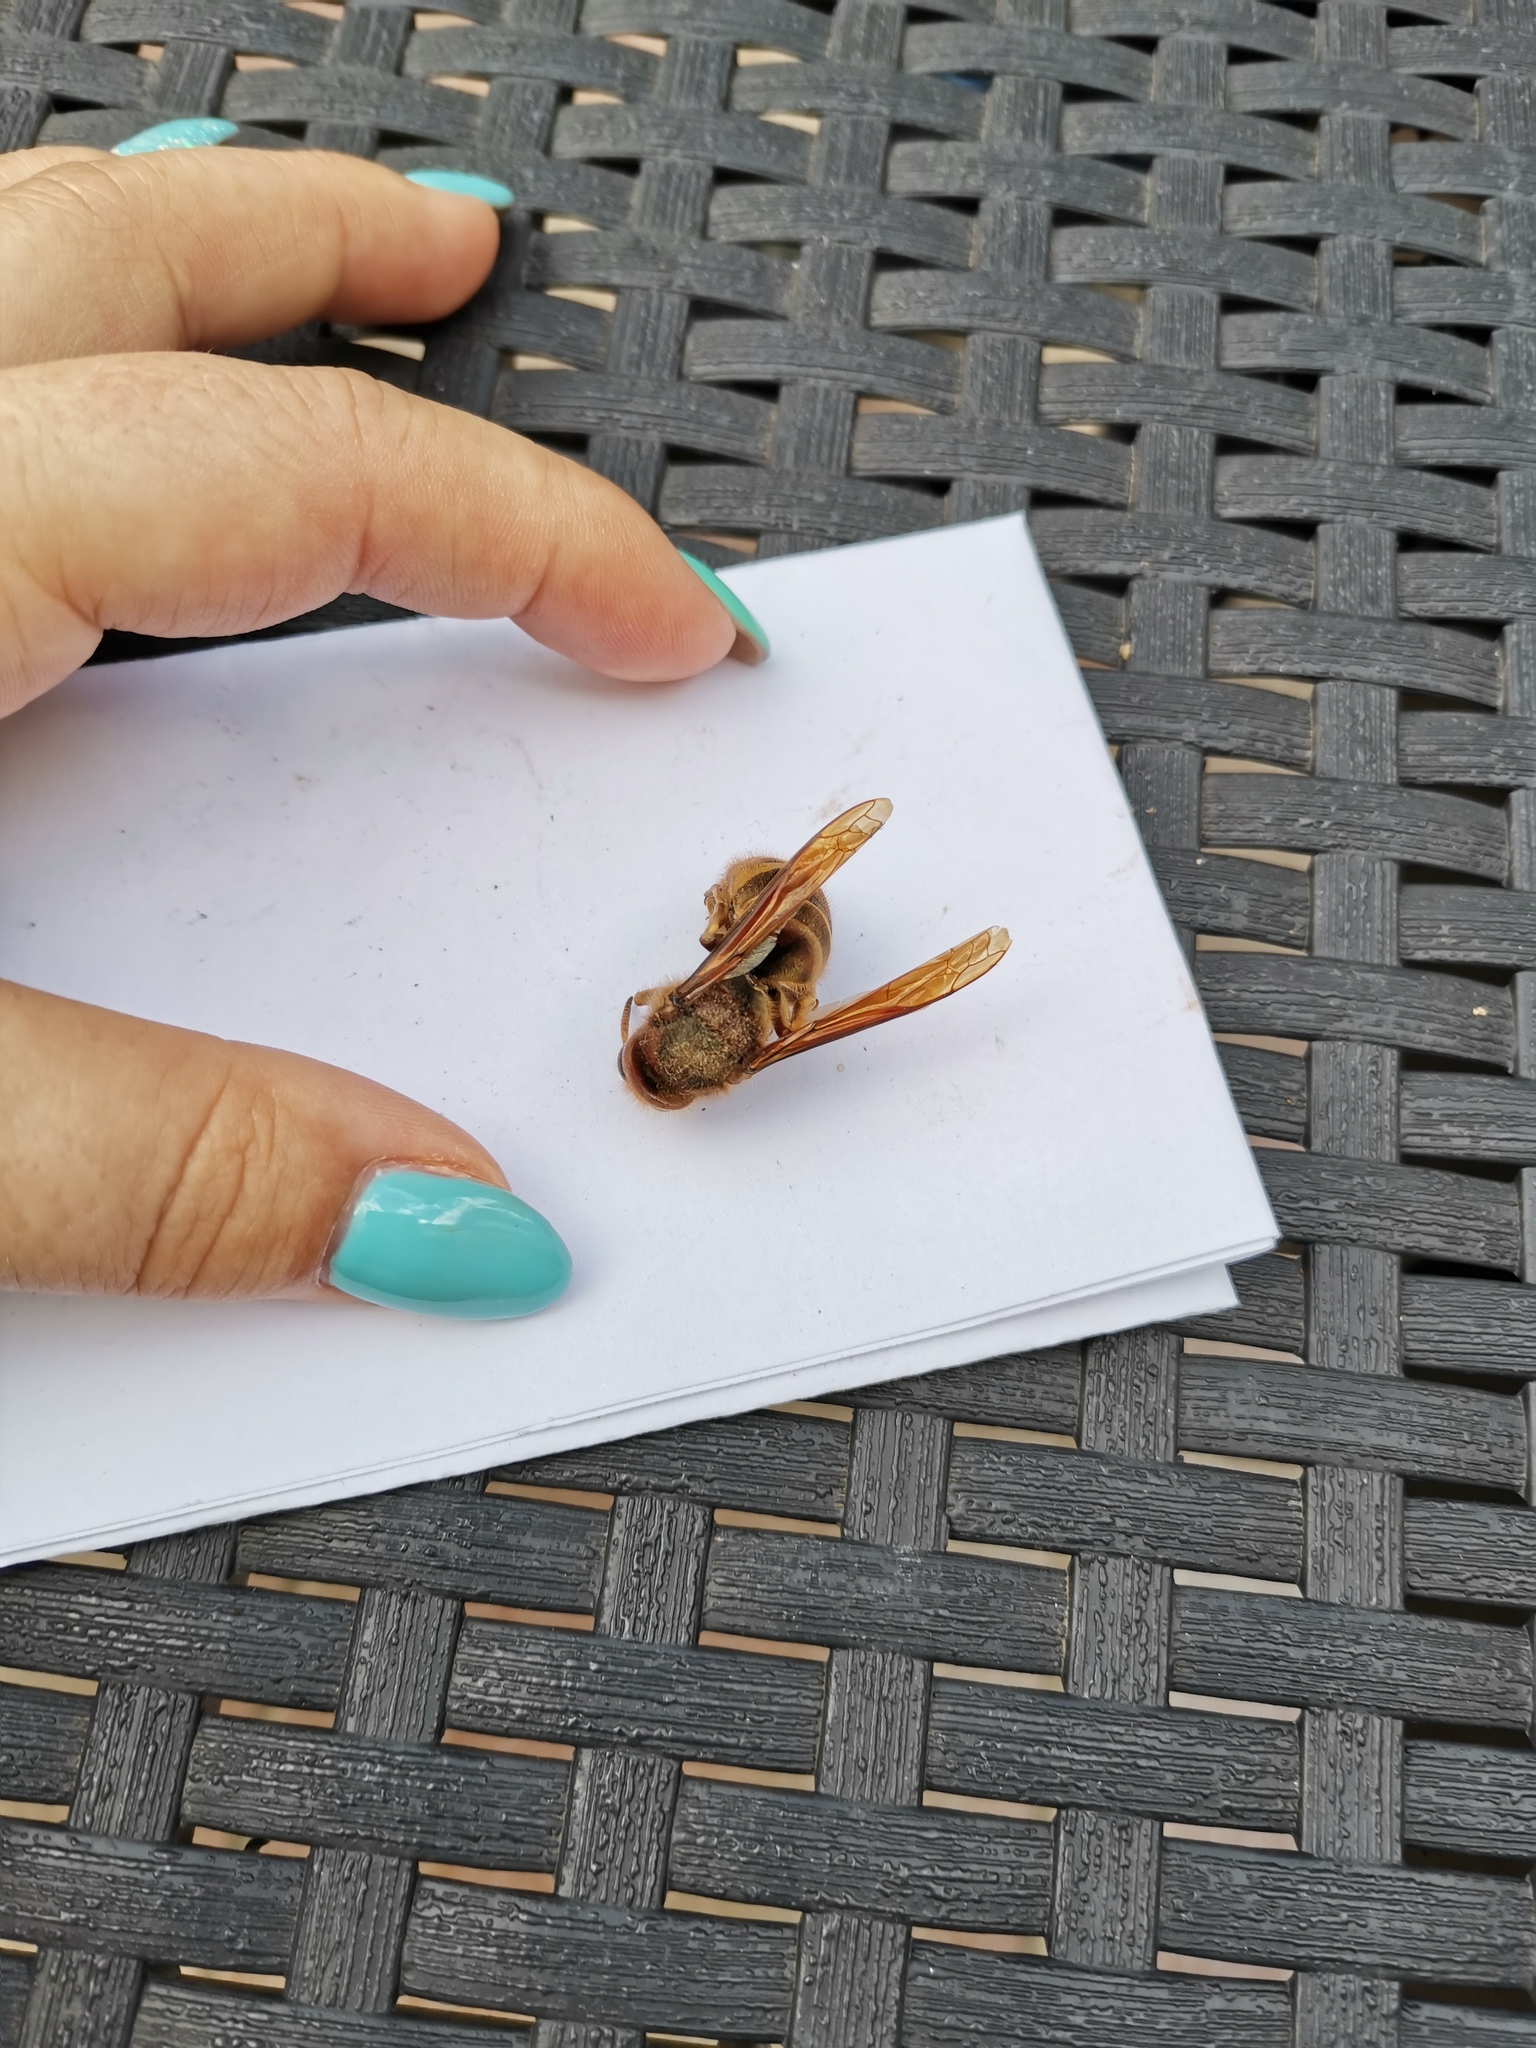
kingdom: Animalia
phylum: Arthropoda
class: Insecta
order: Hymenoptera
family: Vespidae
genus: Vespa
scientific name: Vespa crabro
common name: Hornet
